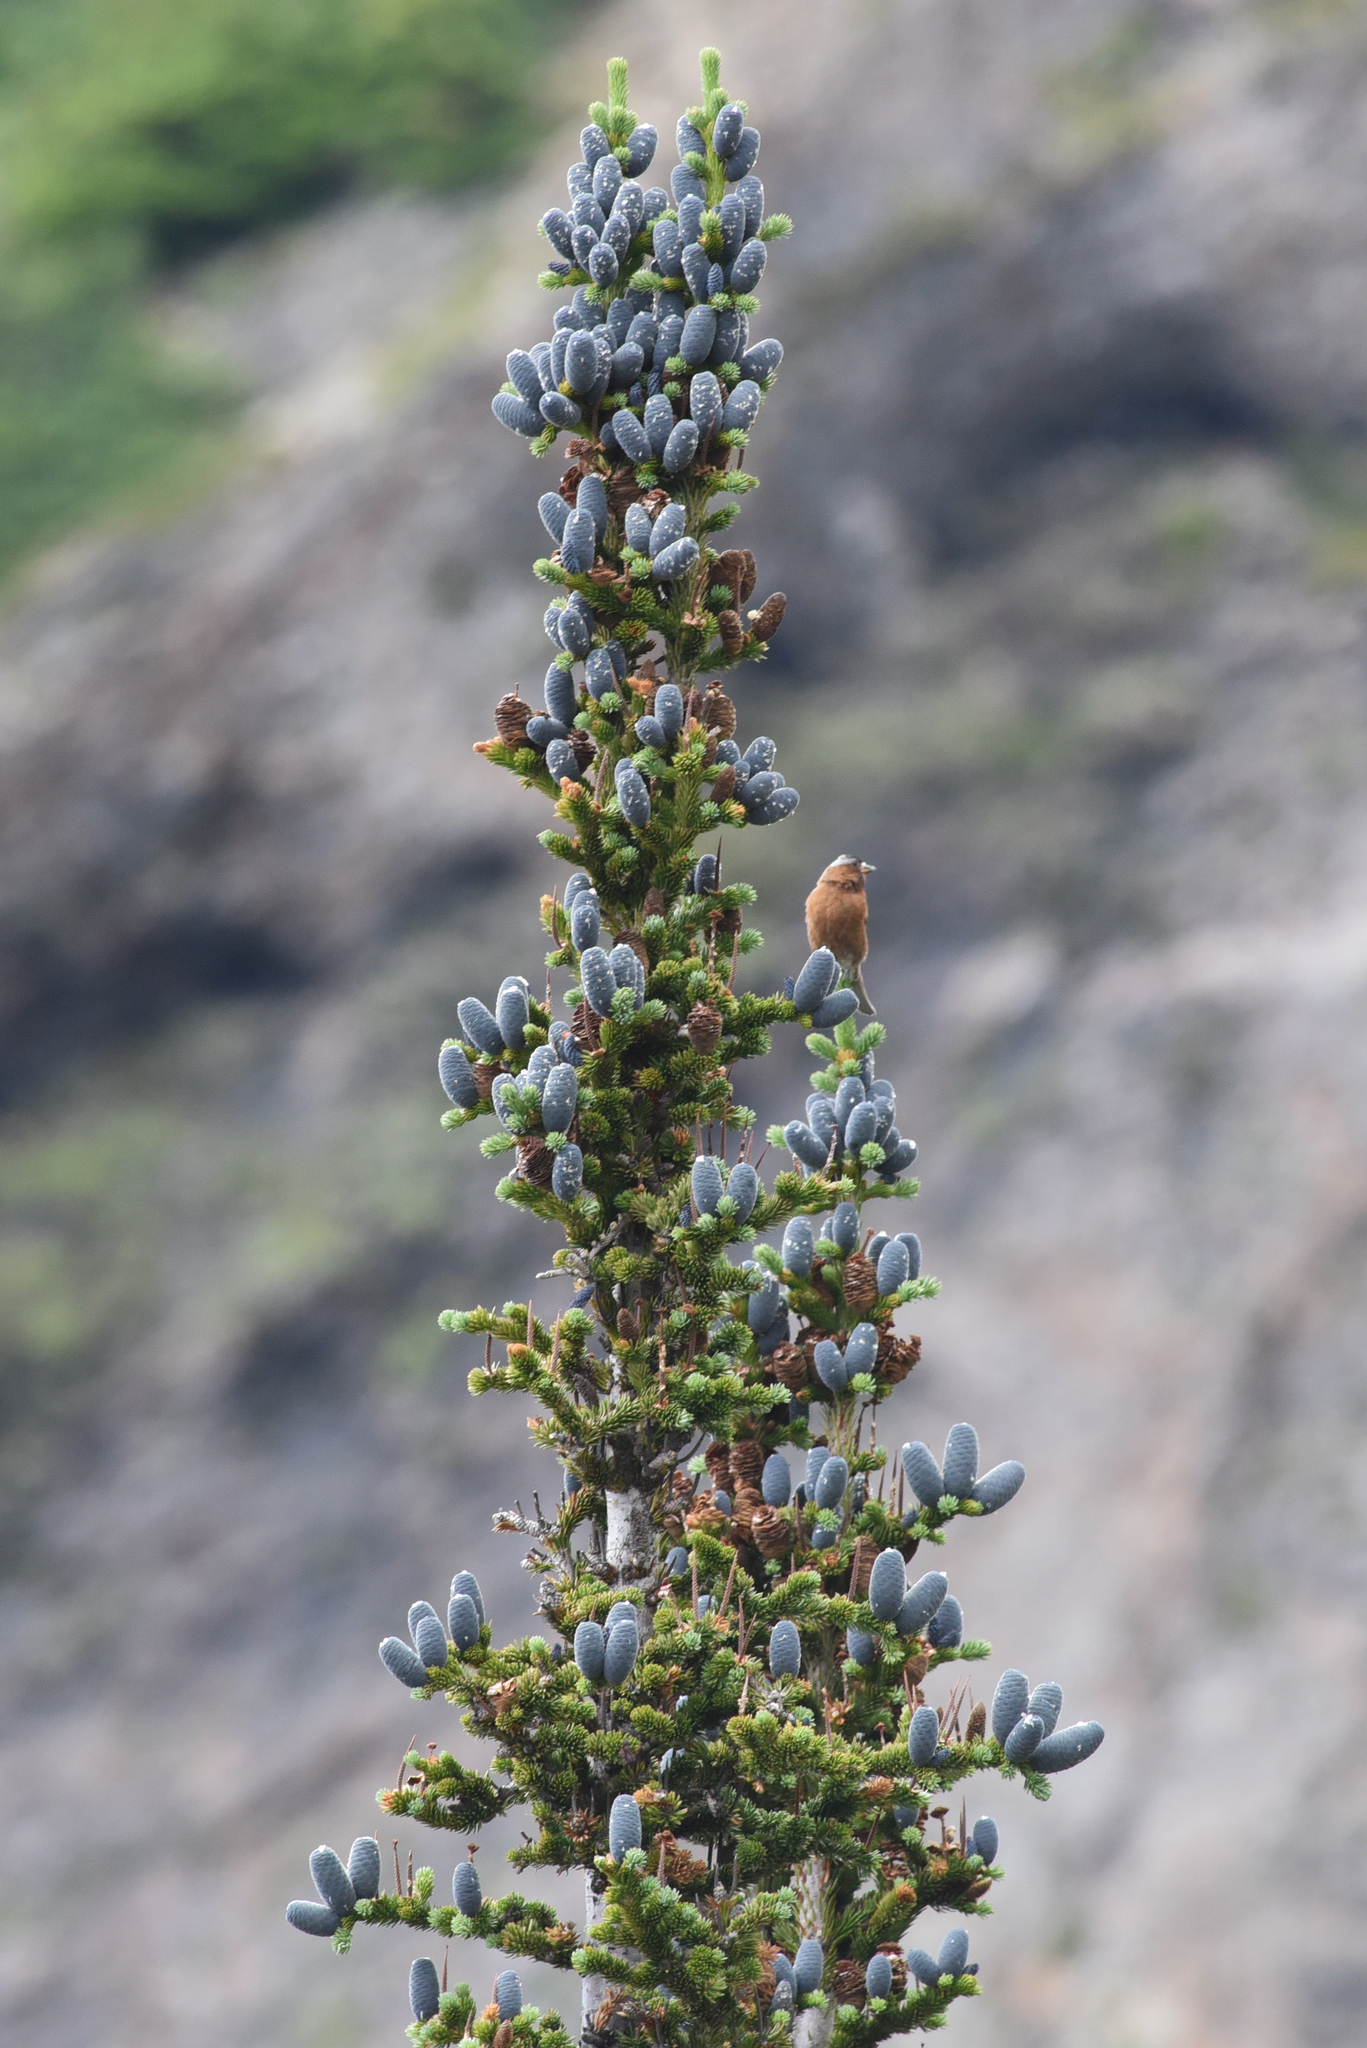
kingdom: Animalia
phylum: Chordata
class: Aves
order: Passeriformes
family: Fringillidae
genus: Leucosticte
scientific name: Leucosticte tephrocotis
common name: Gray-crowned rosy-finch
